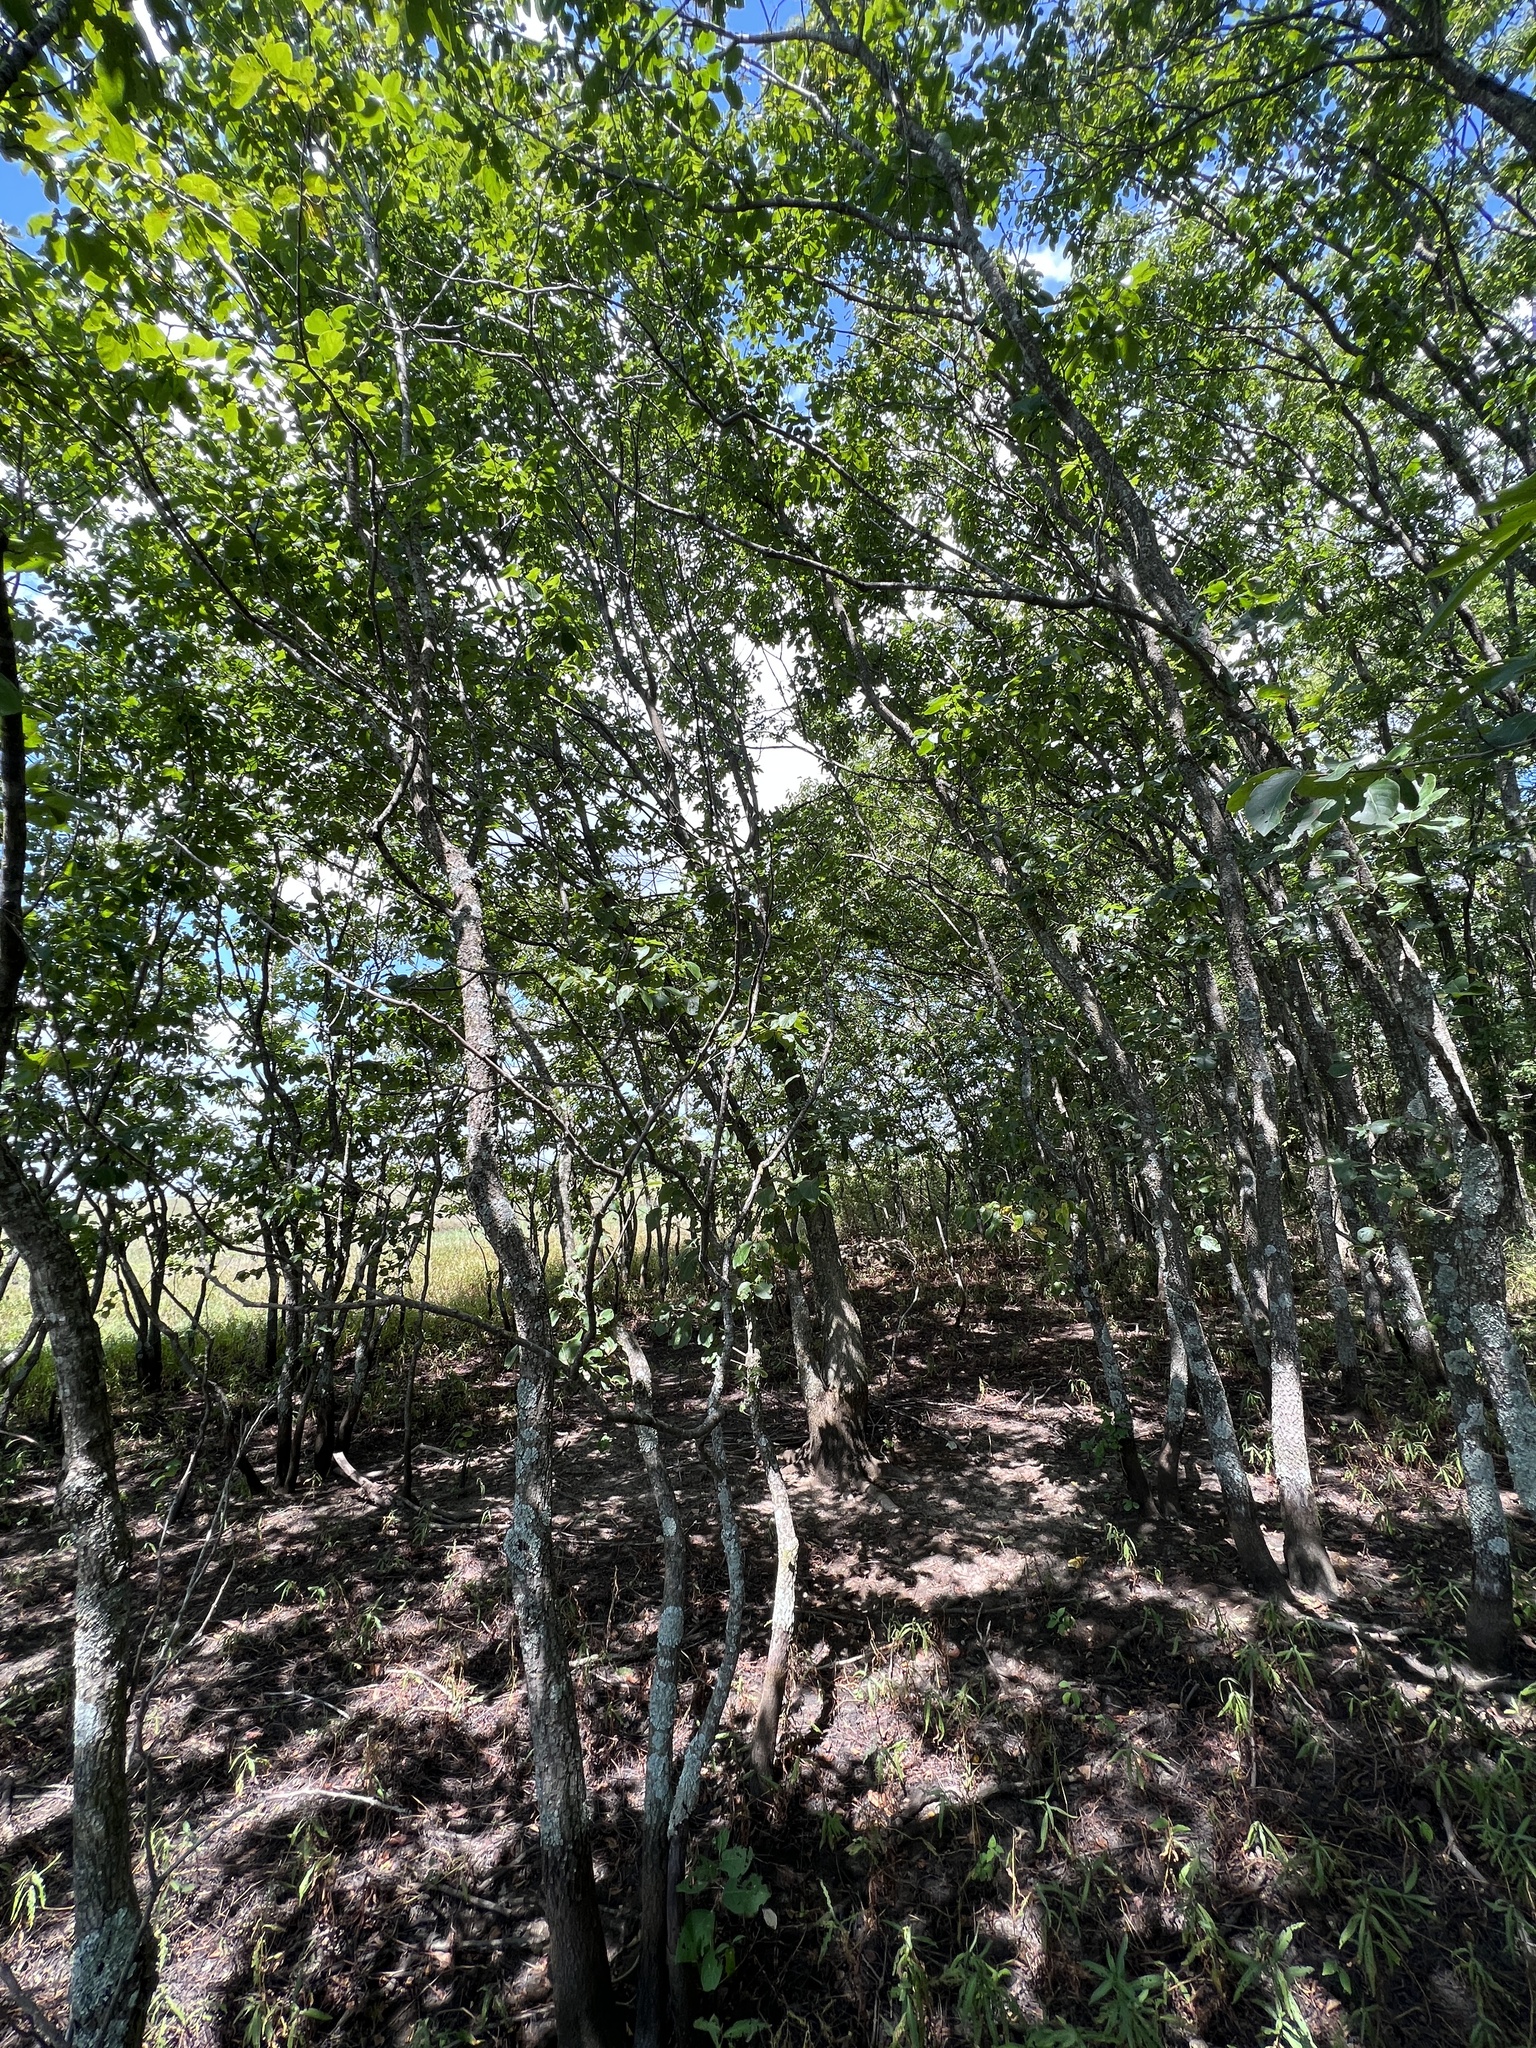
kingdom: Plantae
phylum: Tracheophyta
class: Magnoliopsida
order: Ericales
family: Ebenaceae
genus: Diospyros
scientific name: Diospyros virginiana
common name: Persimmon
